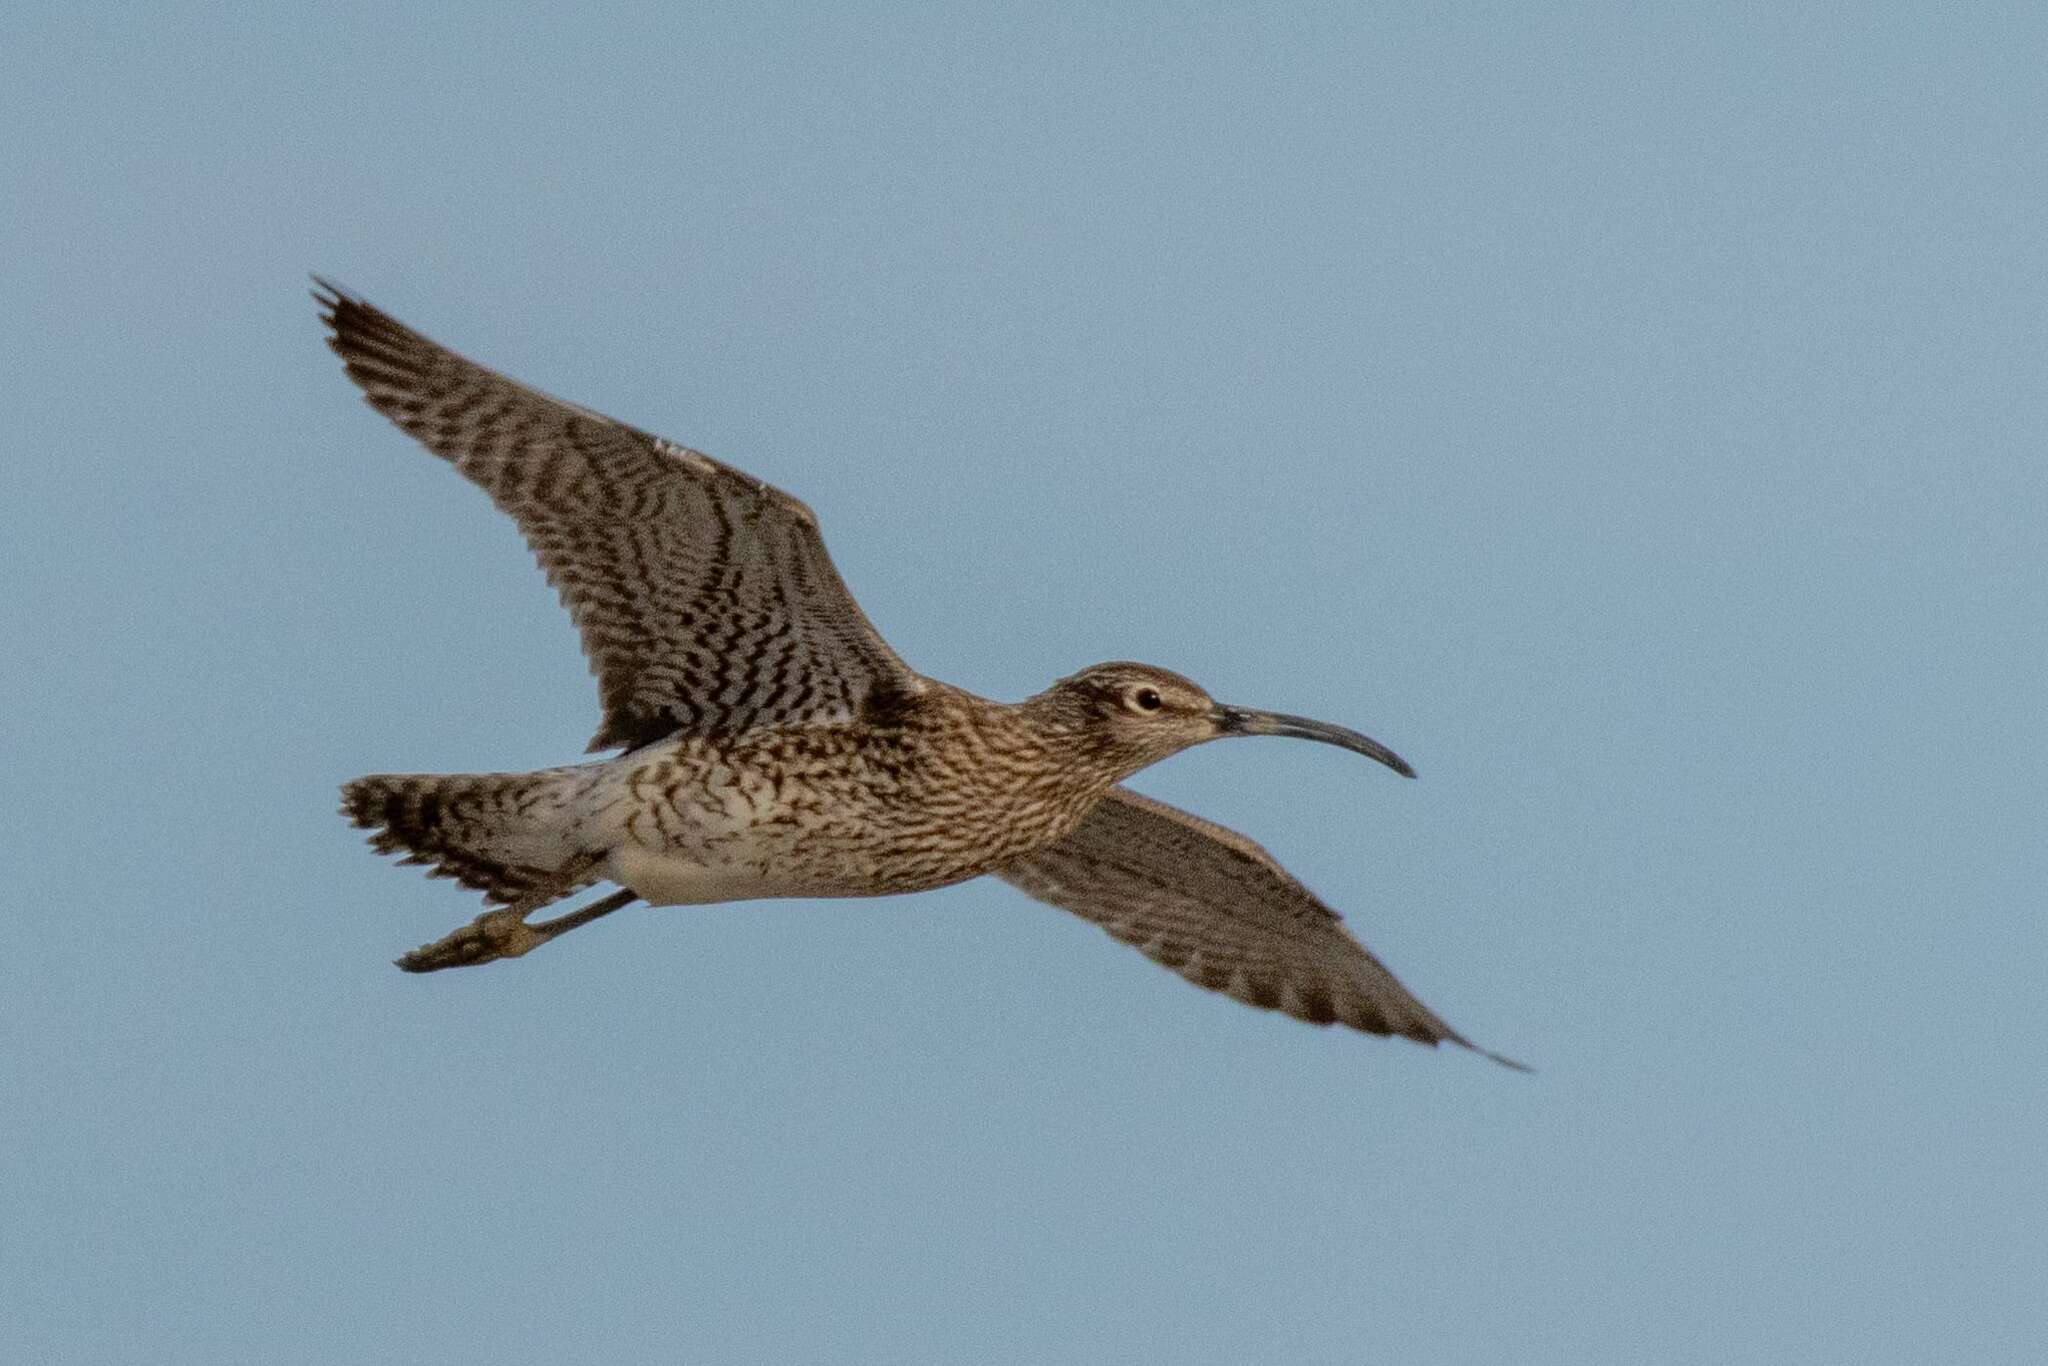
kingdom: Animalia
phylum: Chordata
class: Aves
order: Charadriiformes
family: Scolopacidae
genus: Numenius
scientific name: Numenius phaeopus
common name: Whimbrel
